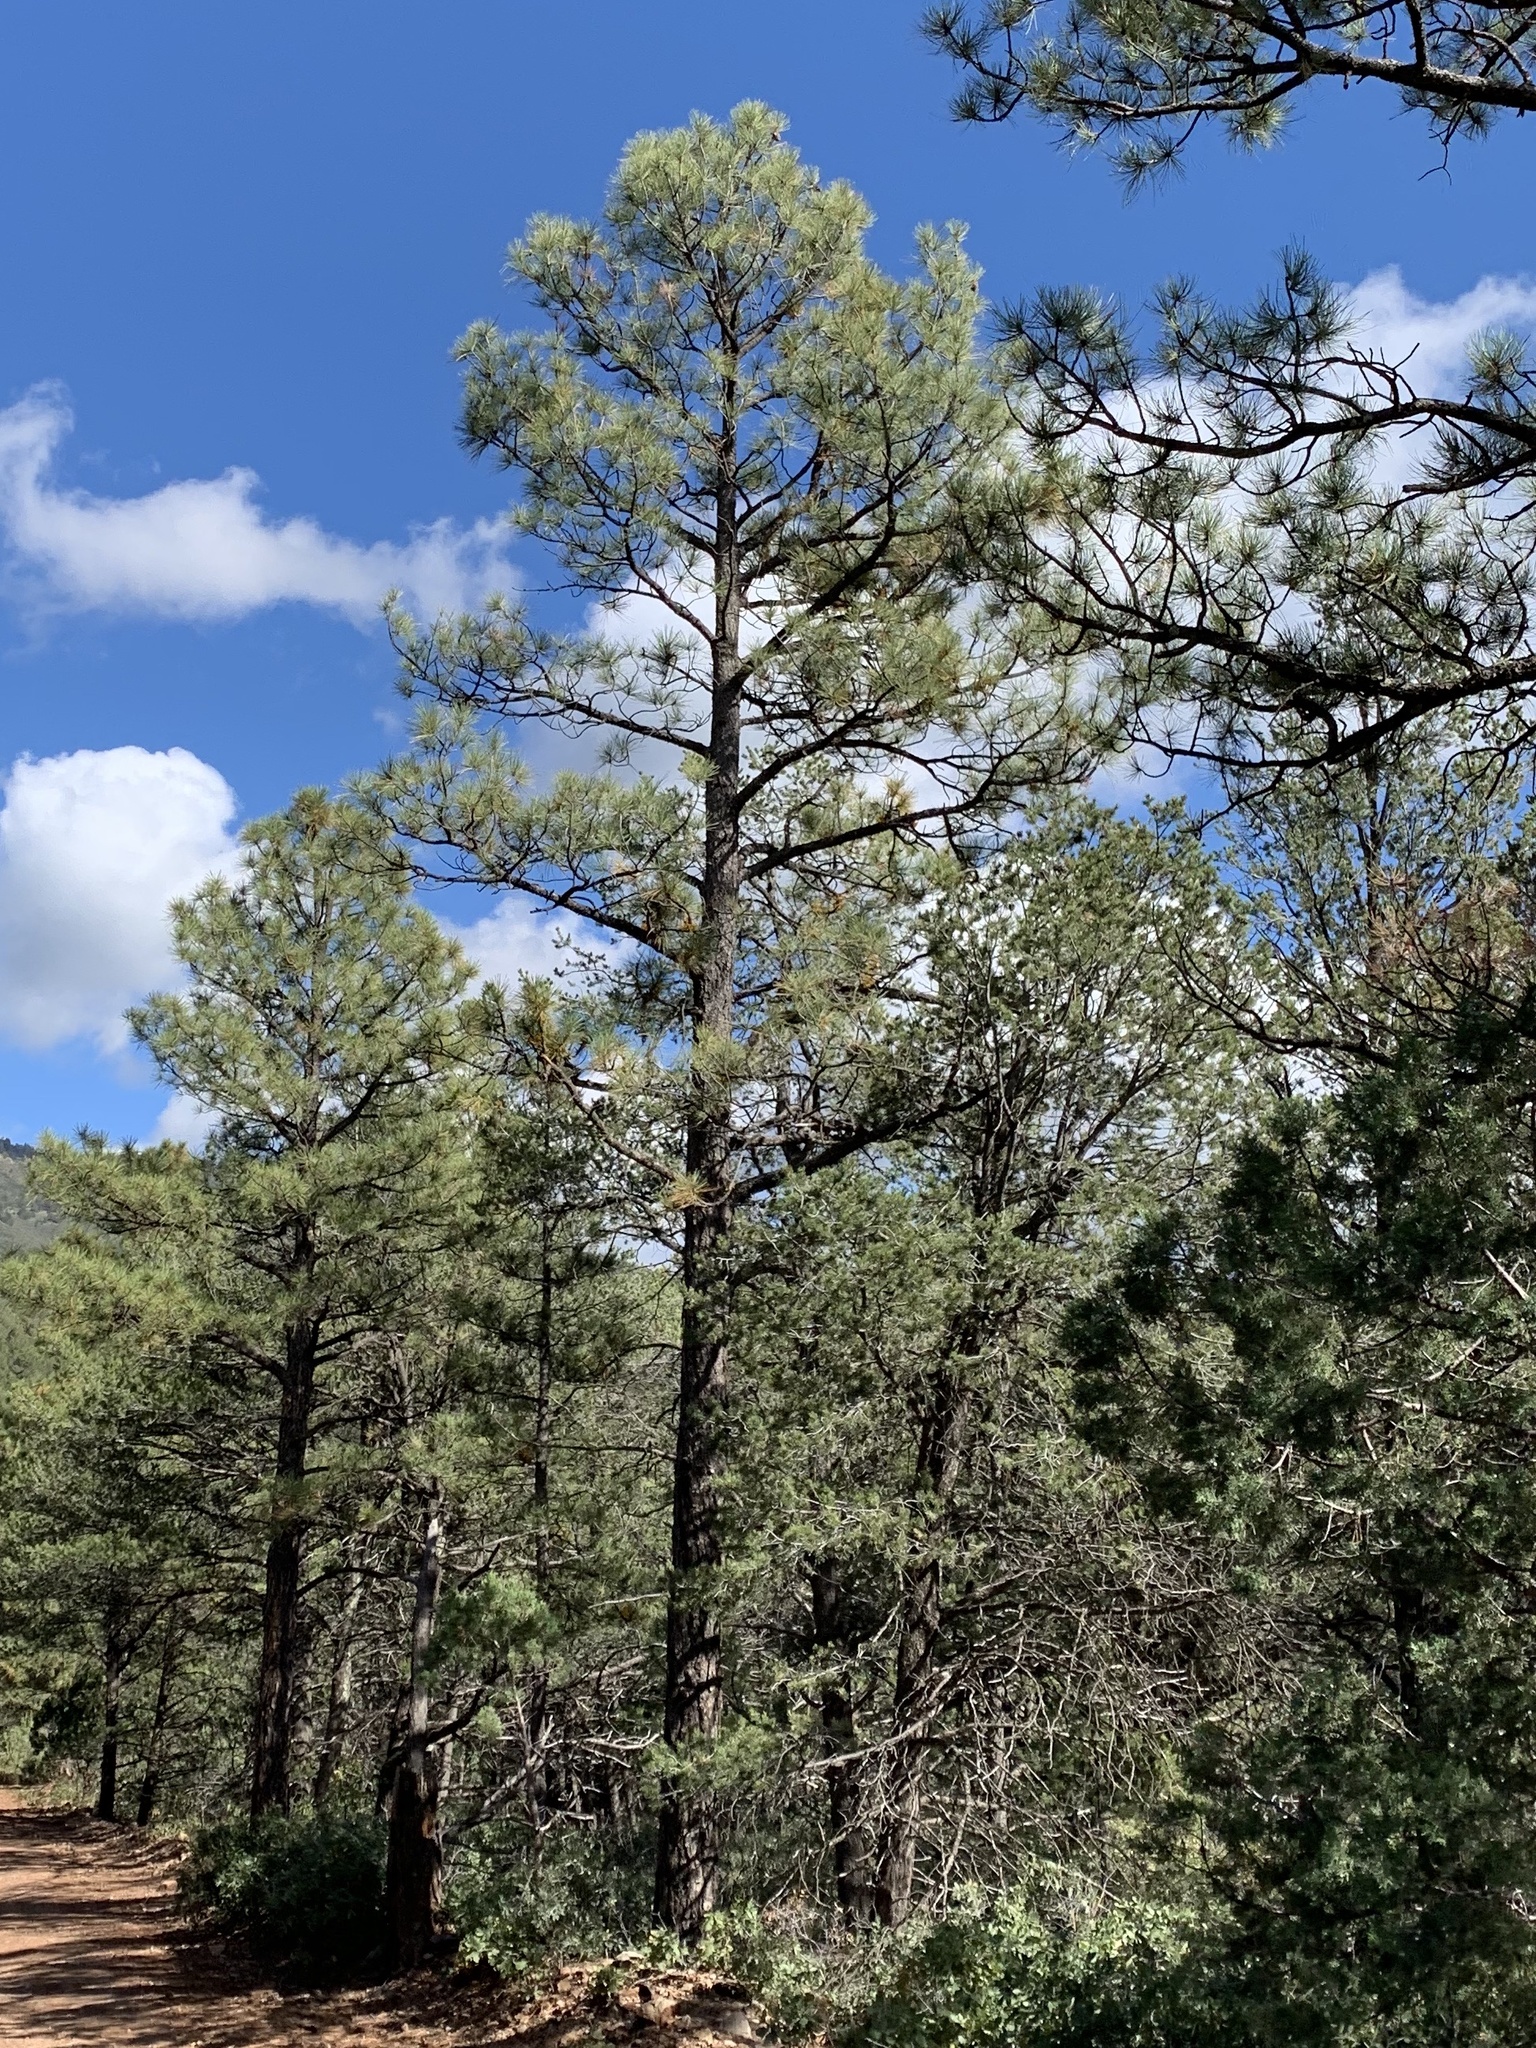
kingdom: Plantae
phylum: Tracheophyta
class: Pinopsida
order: Pinales
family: Pinaceae
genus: Pinus
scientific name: Pinus ponderosa
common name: Western yellow-pine
